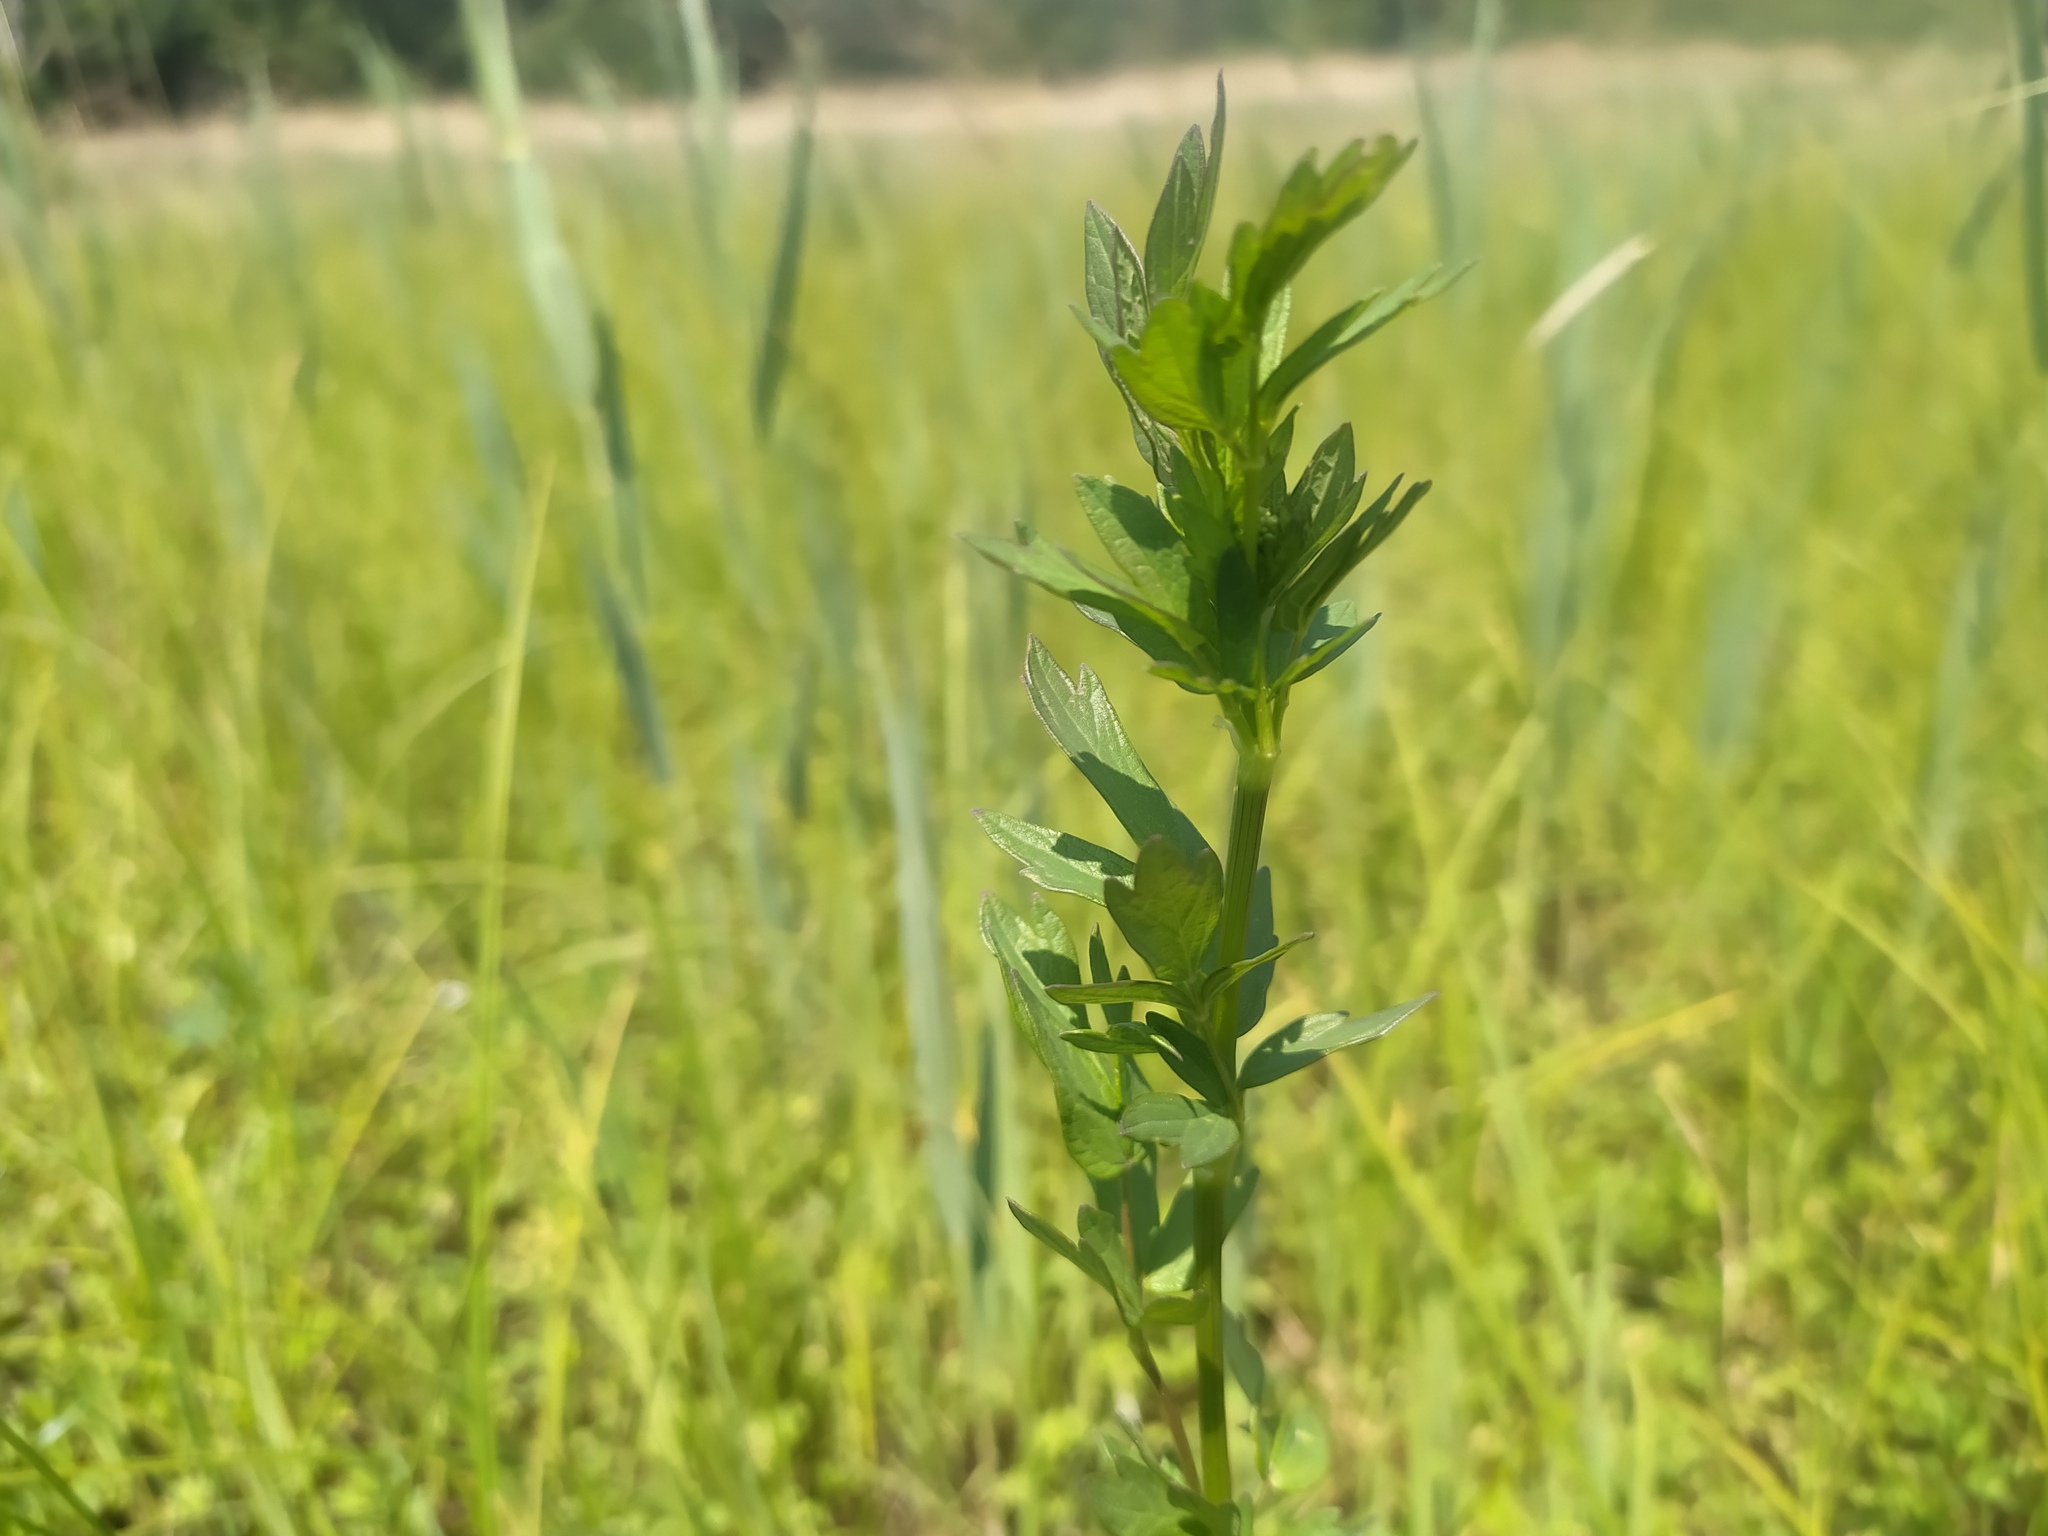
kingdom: Plantae
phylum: Tracheophyta
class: Magnoliopsida
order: Ranunculales
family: Ranunculaceae
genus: Thalictrum
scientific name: Thalictrum flavum
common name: Common meadow-rue
